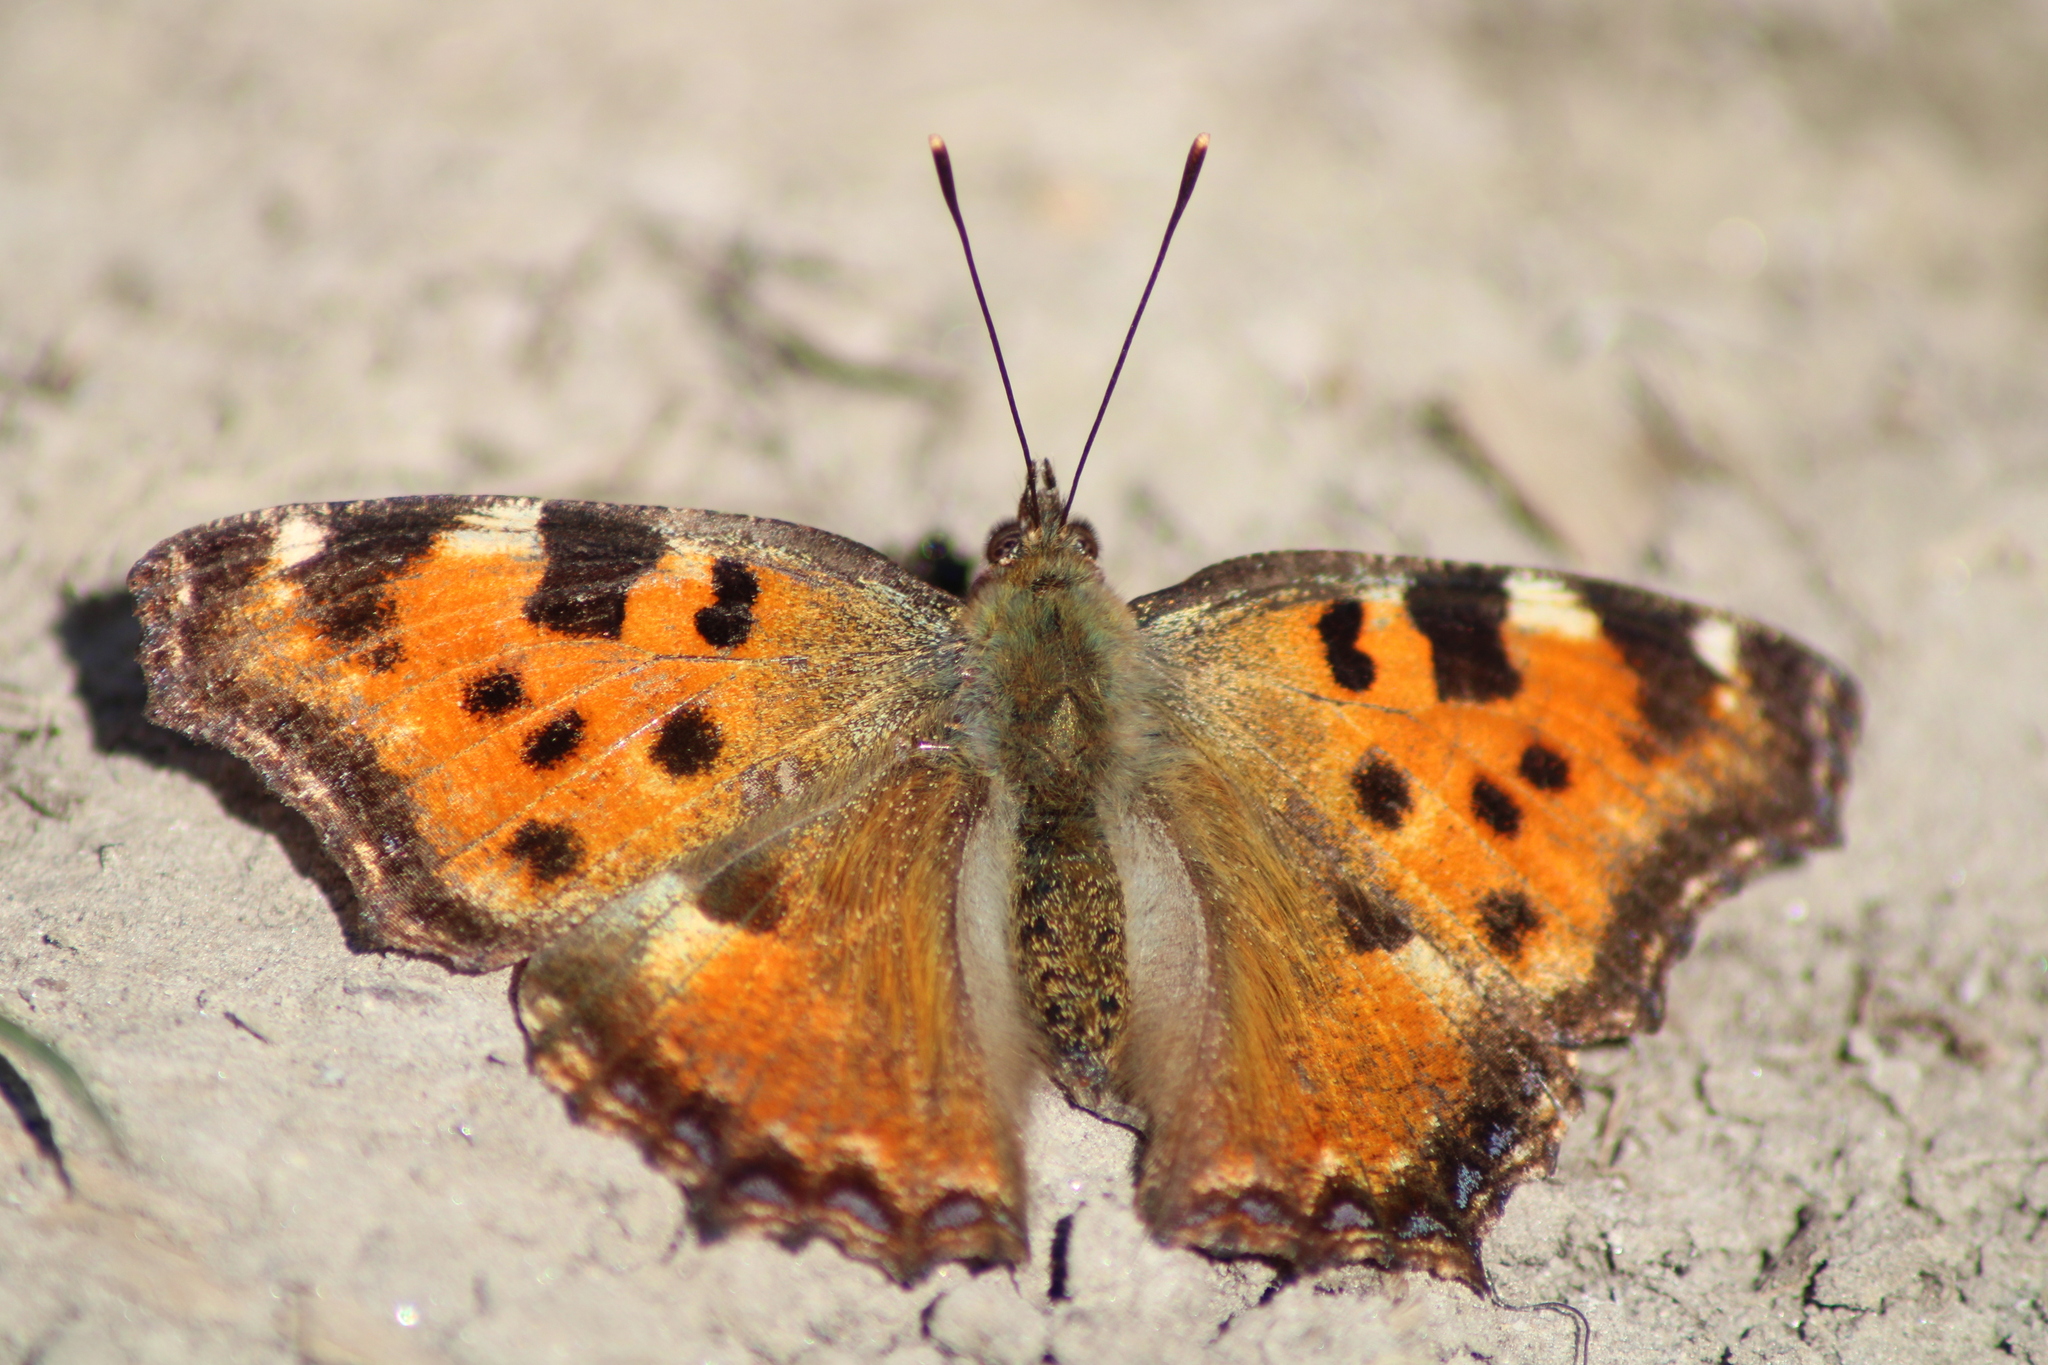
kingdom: Animalia
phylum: Arthropoda
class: Insecta
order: Lepidoptera
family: Nymphalidae
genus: Nymphalis
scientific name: Nymphalis polychloros
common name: Large tortoiseshell
